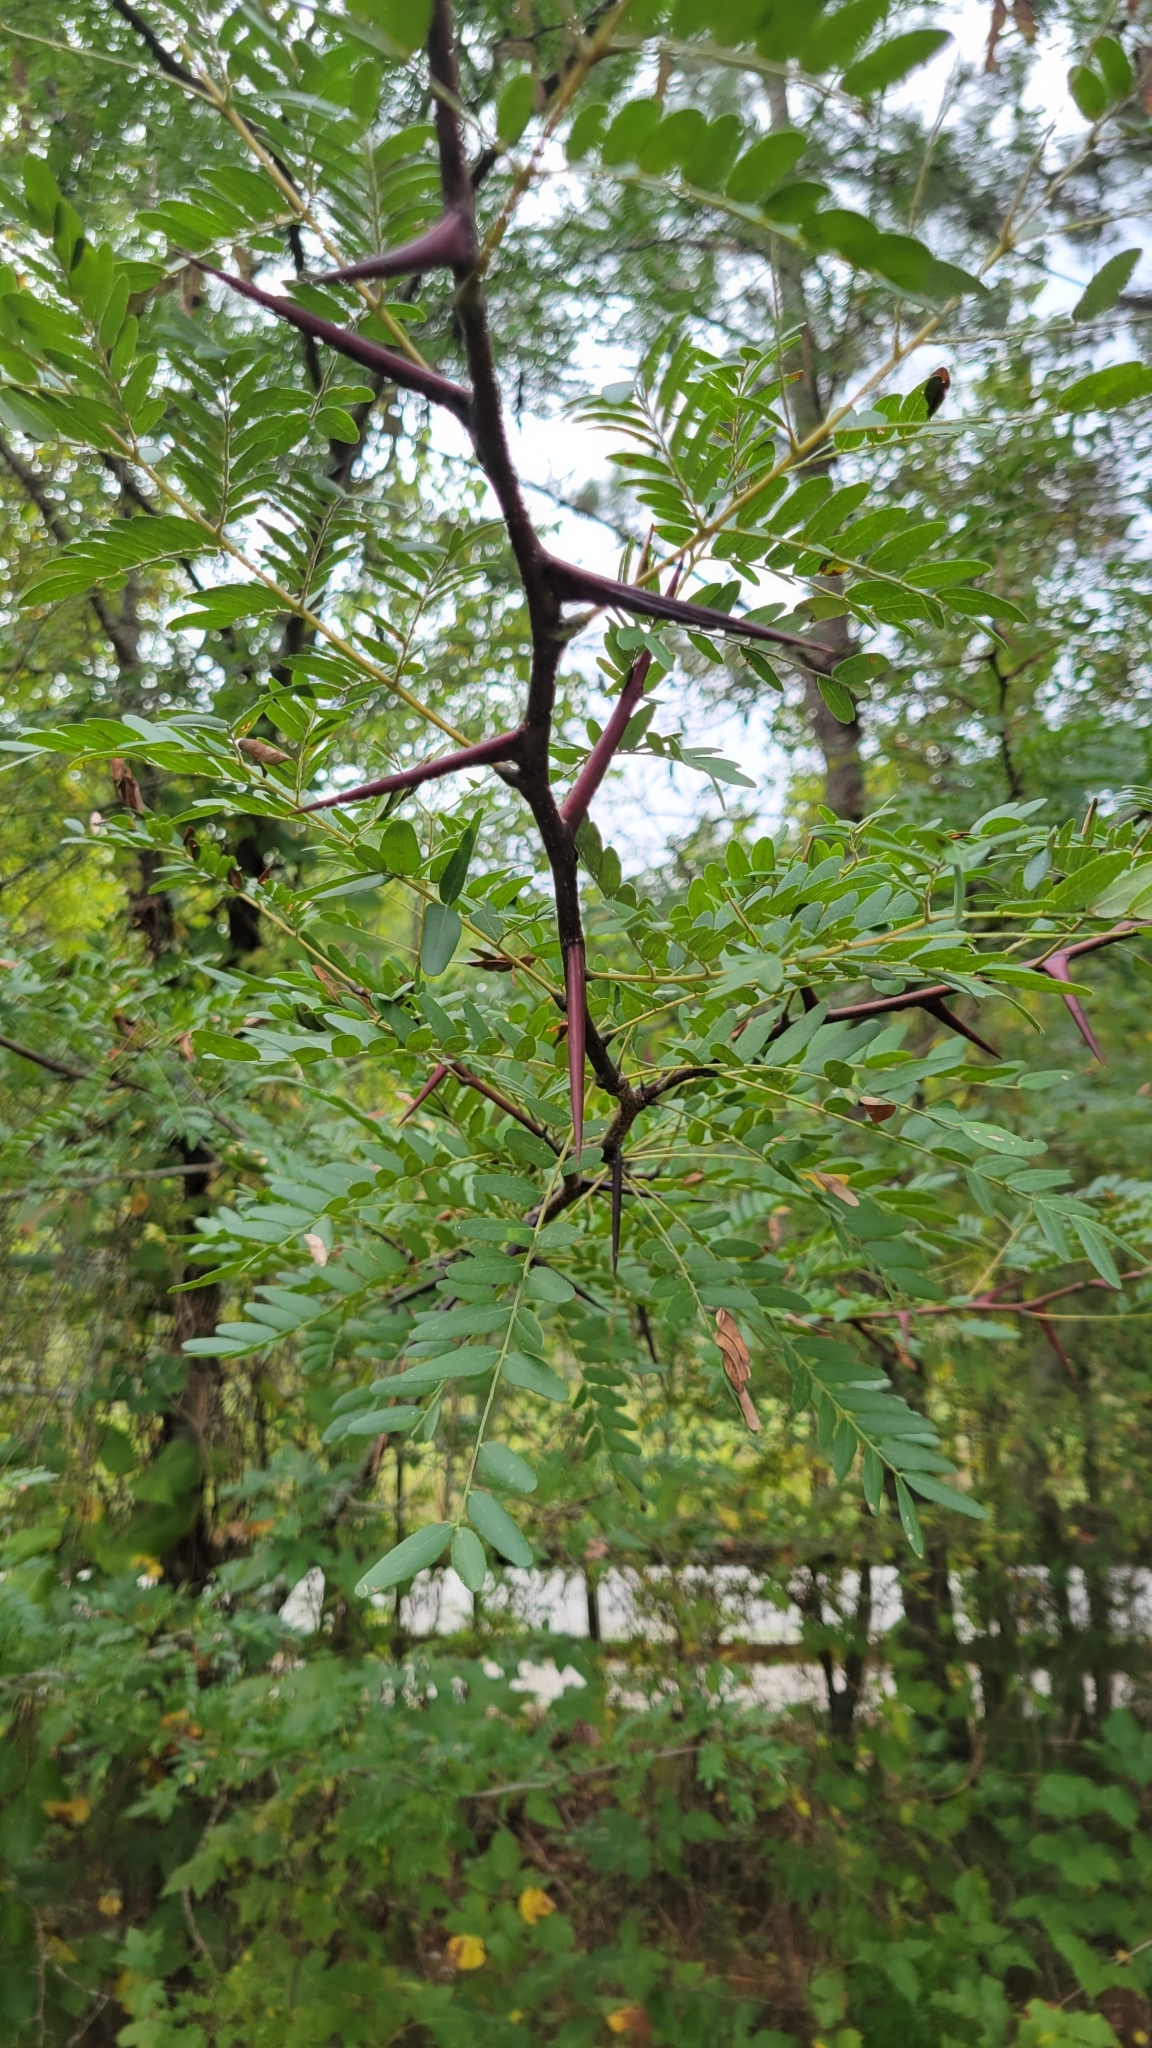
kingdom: Plantae
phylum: Tracheophyta
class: Magnoliopsida
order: Fabales
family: Fabaceae
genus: Gleditsia
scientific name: Gleditsia triacanthos
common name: Common honeylocust
